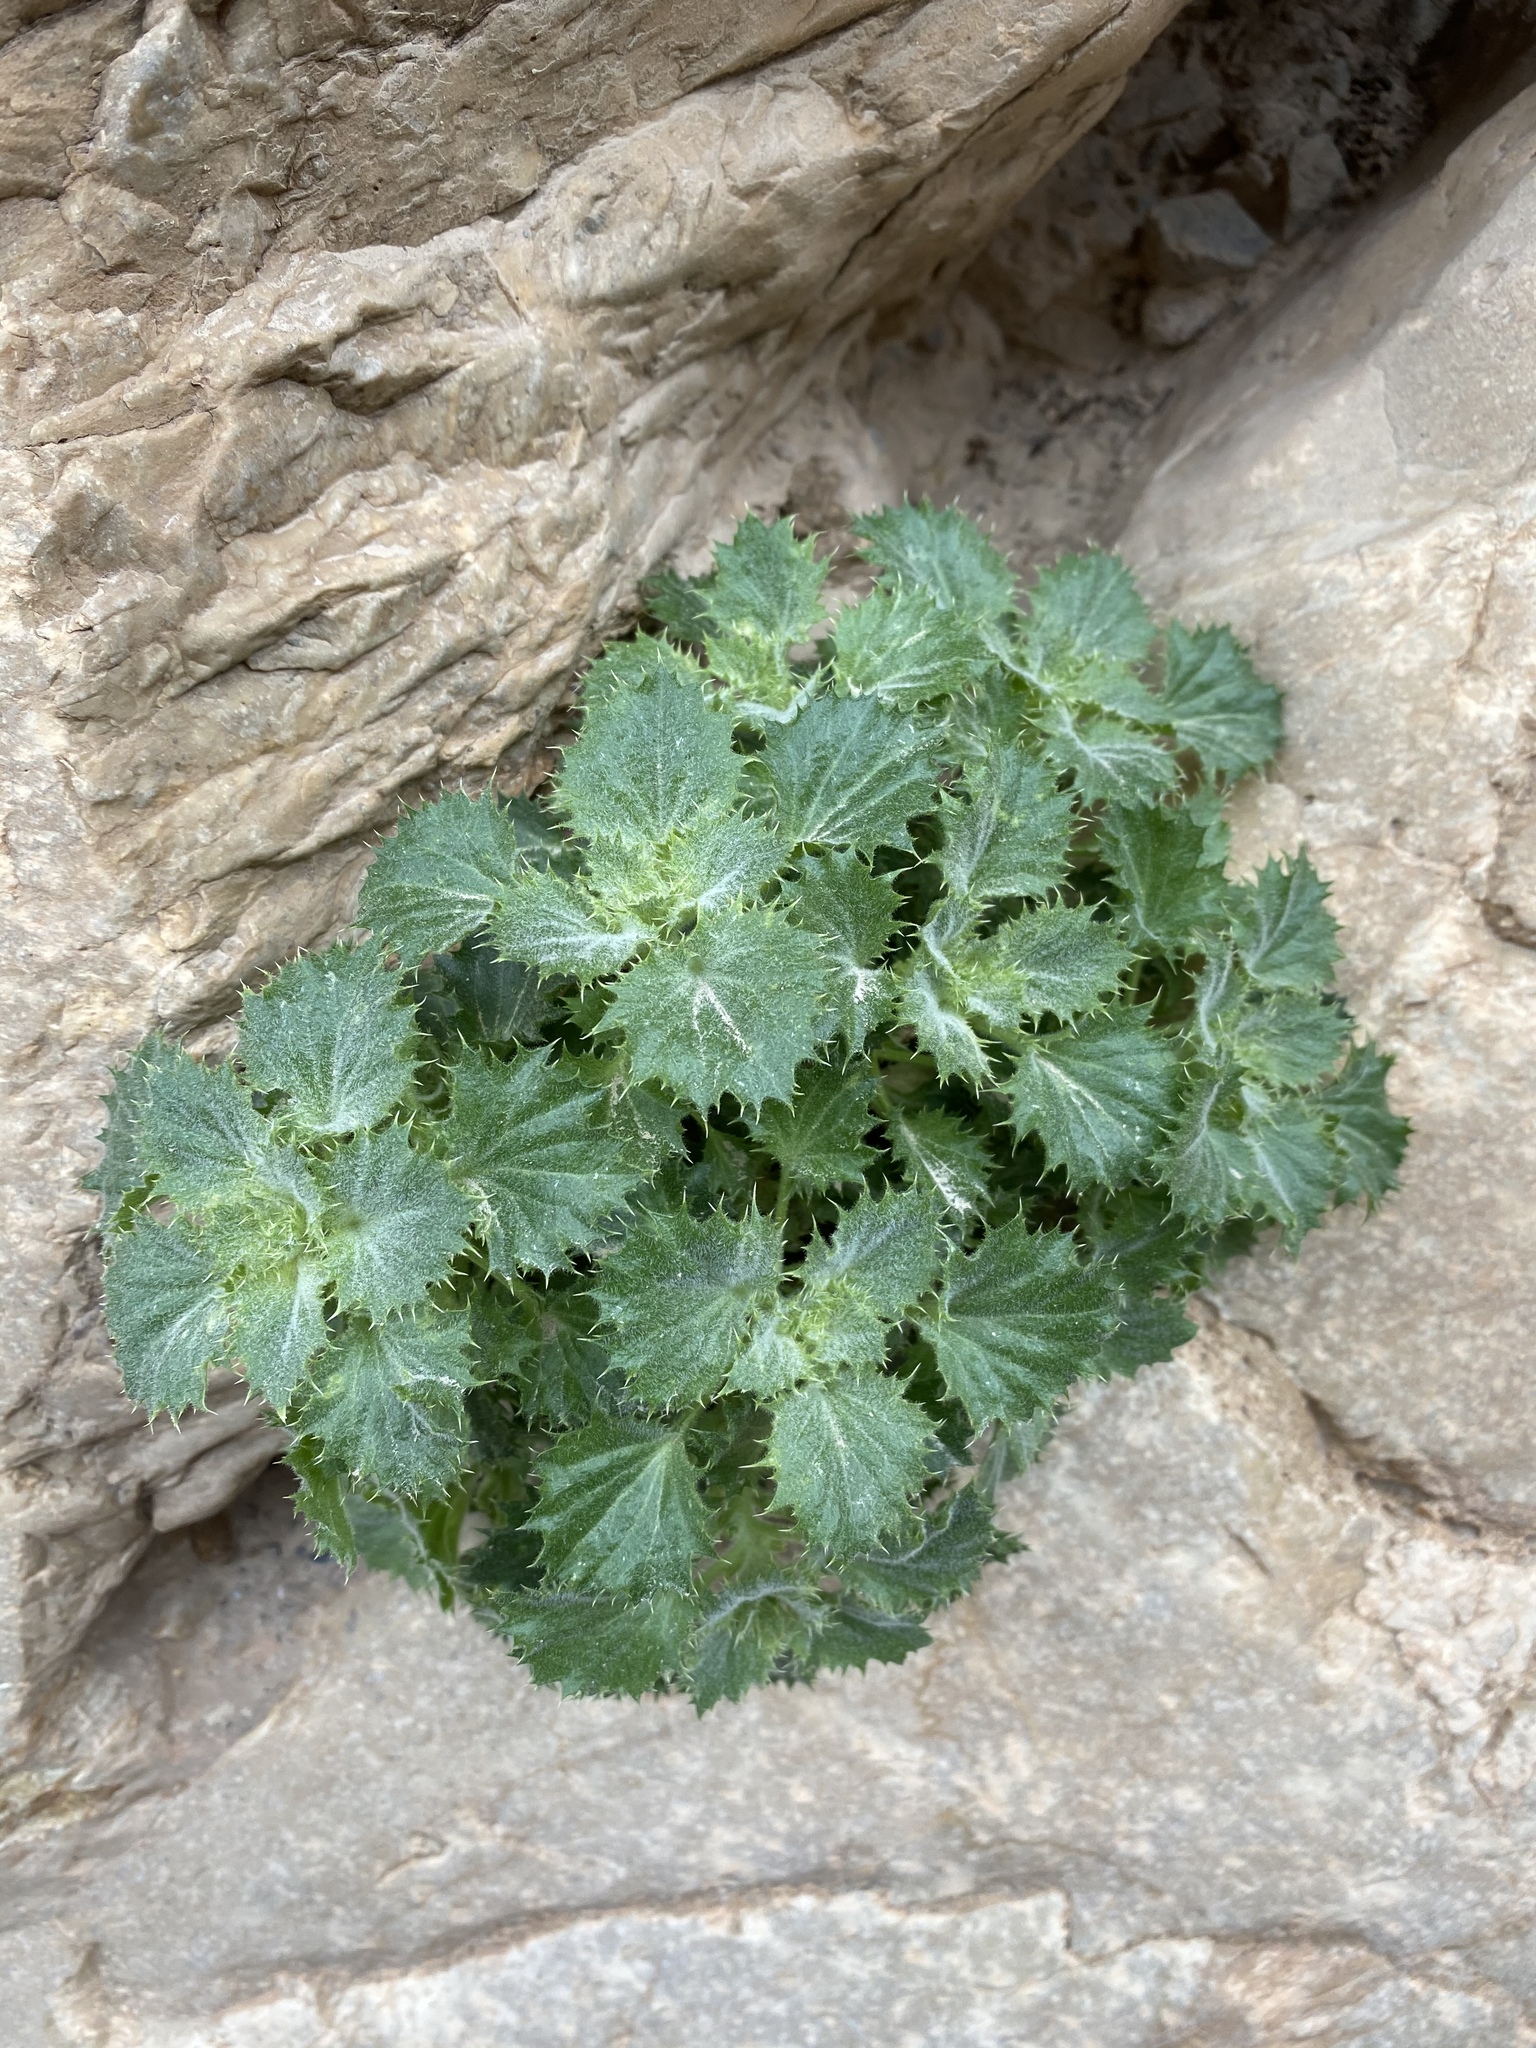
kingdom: Plantae
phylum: Tracheophyta
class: Magnoliopsida
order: Lamiales
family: Plantaginaceae
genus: Holmgrenanthe
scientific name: Holmgrenanthe petrophila
